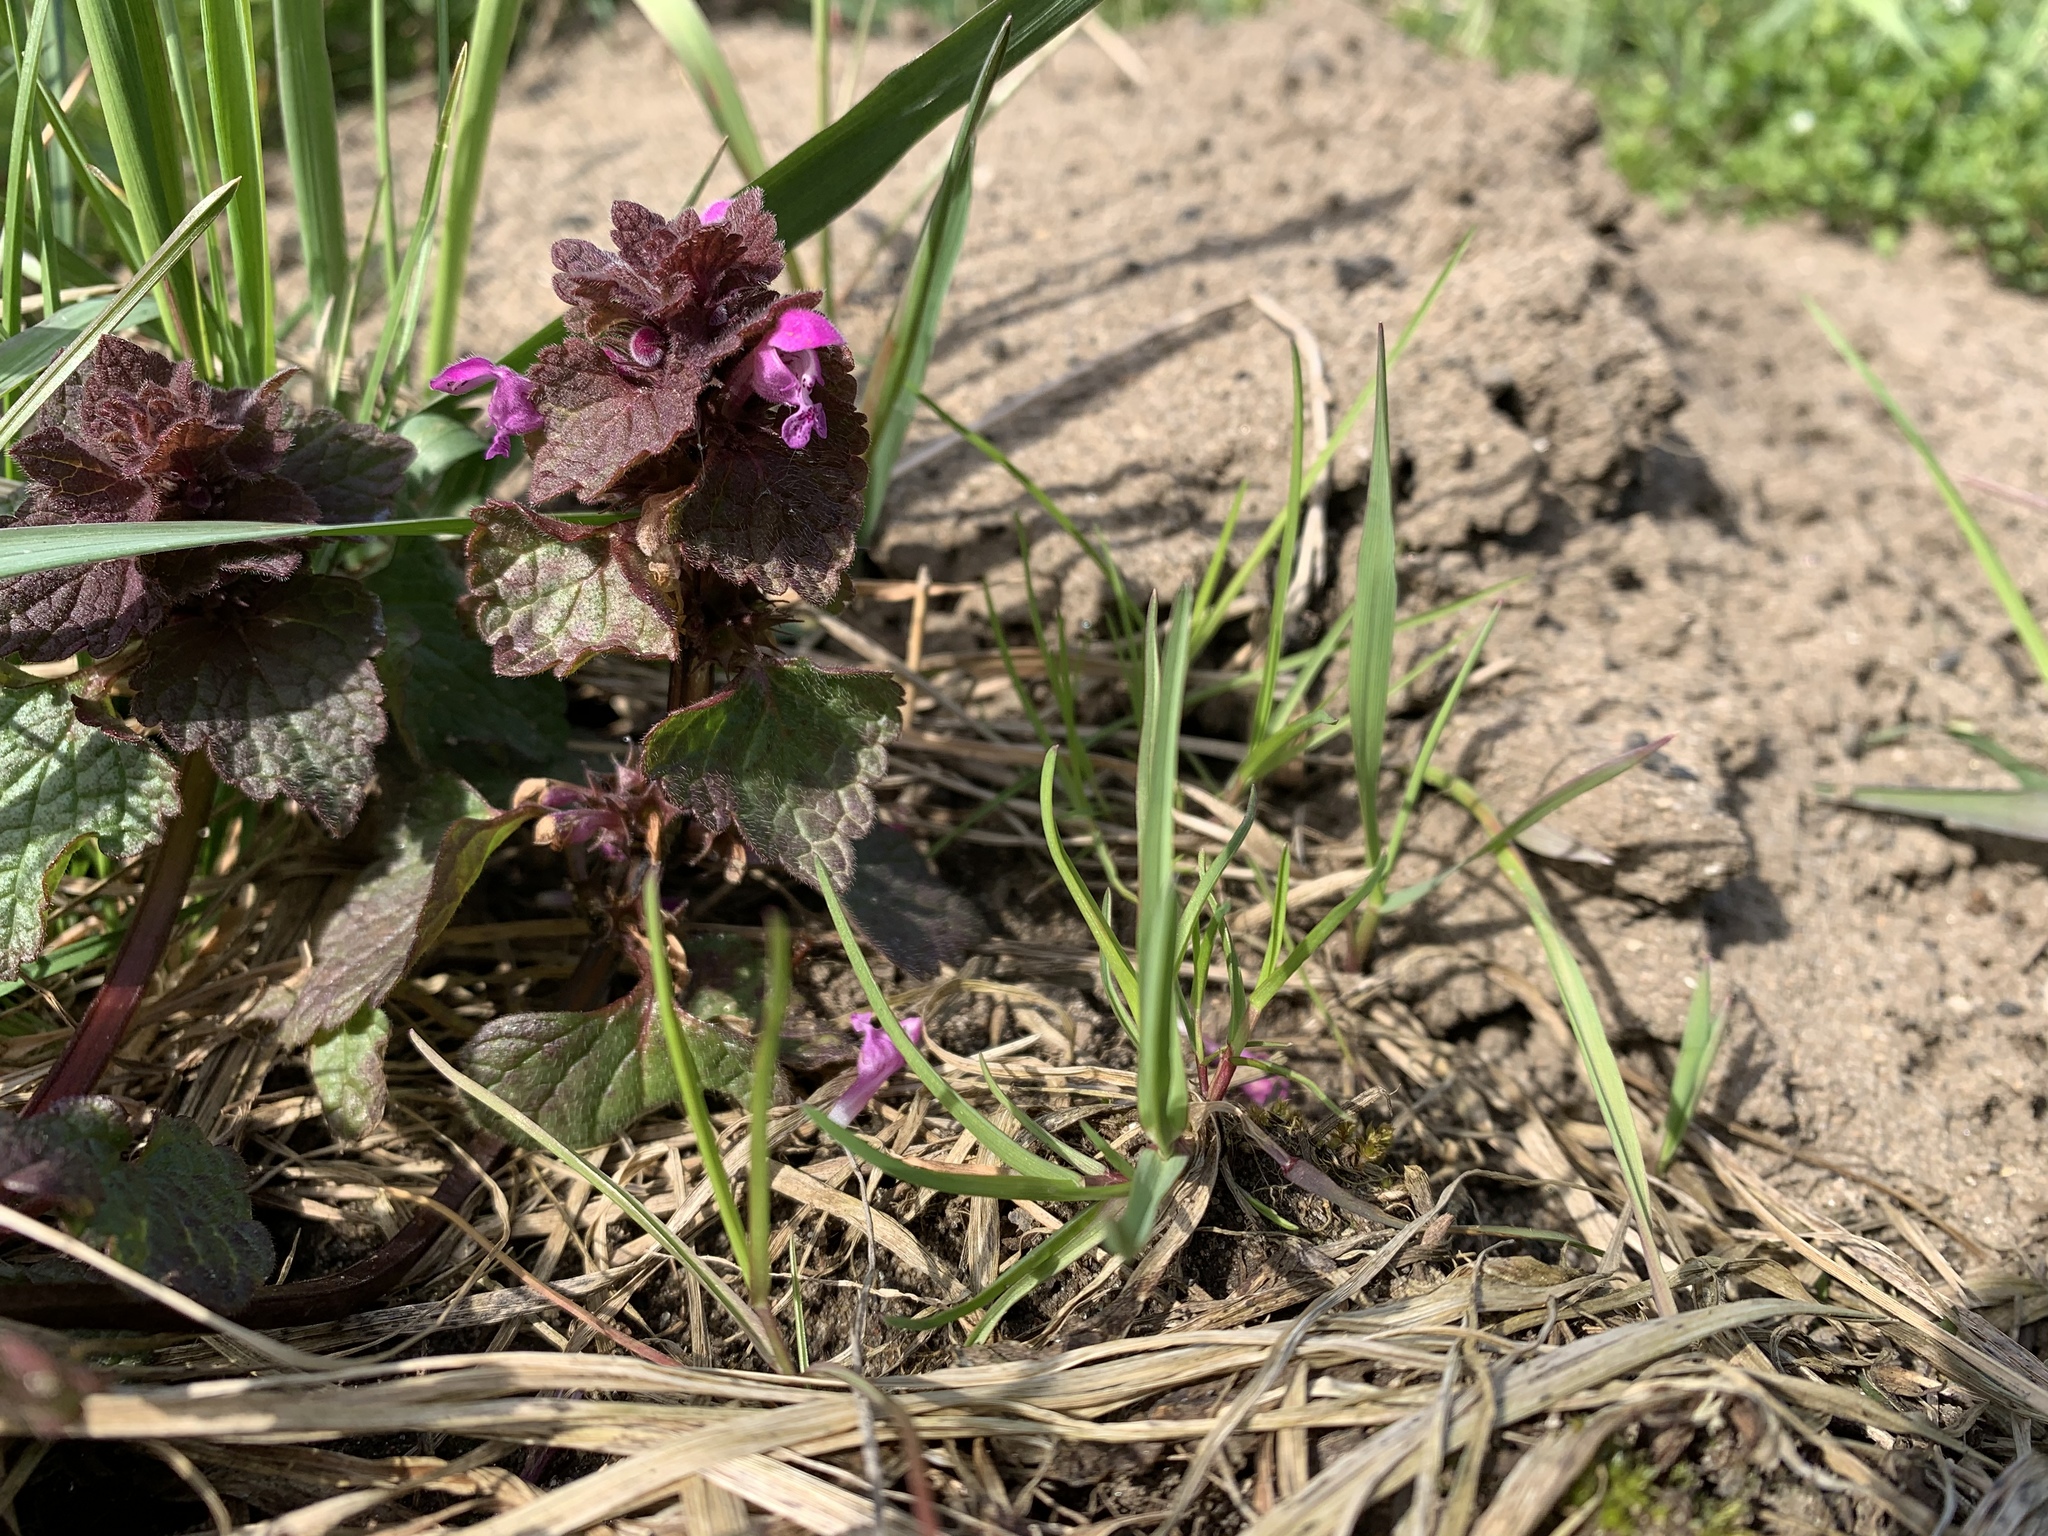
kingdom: Plantae
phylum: Tracheophyta
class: Magnoliopsida
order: Lamiales
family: Lamiaceae
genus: Lamium
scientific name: Lamium purpureum
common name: Red dead-nettle
